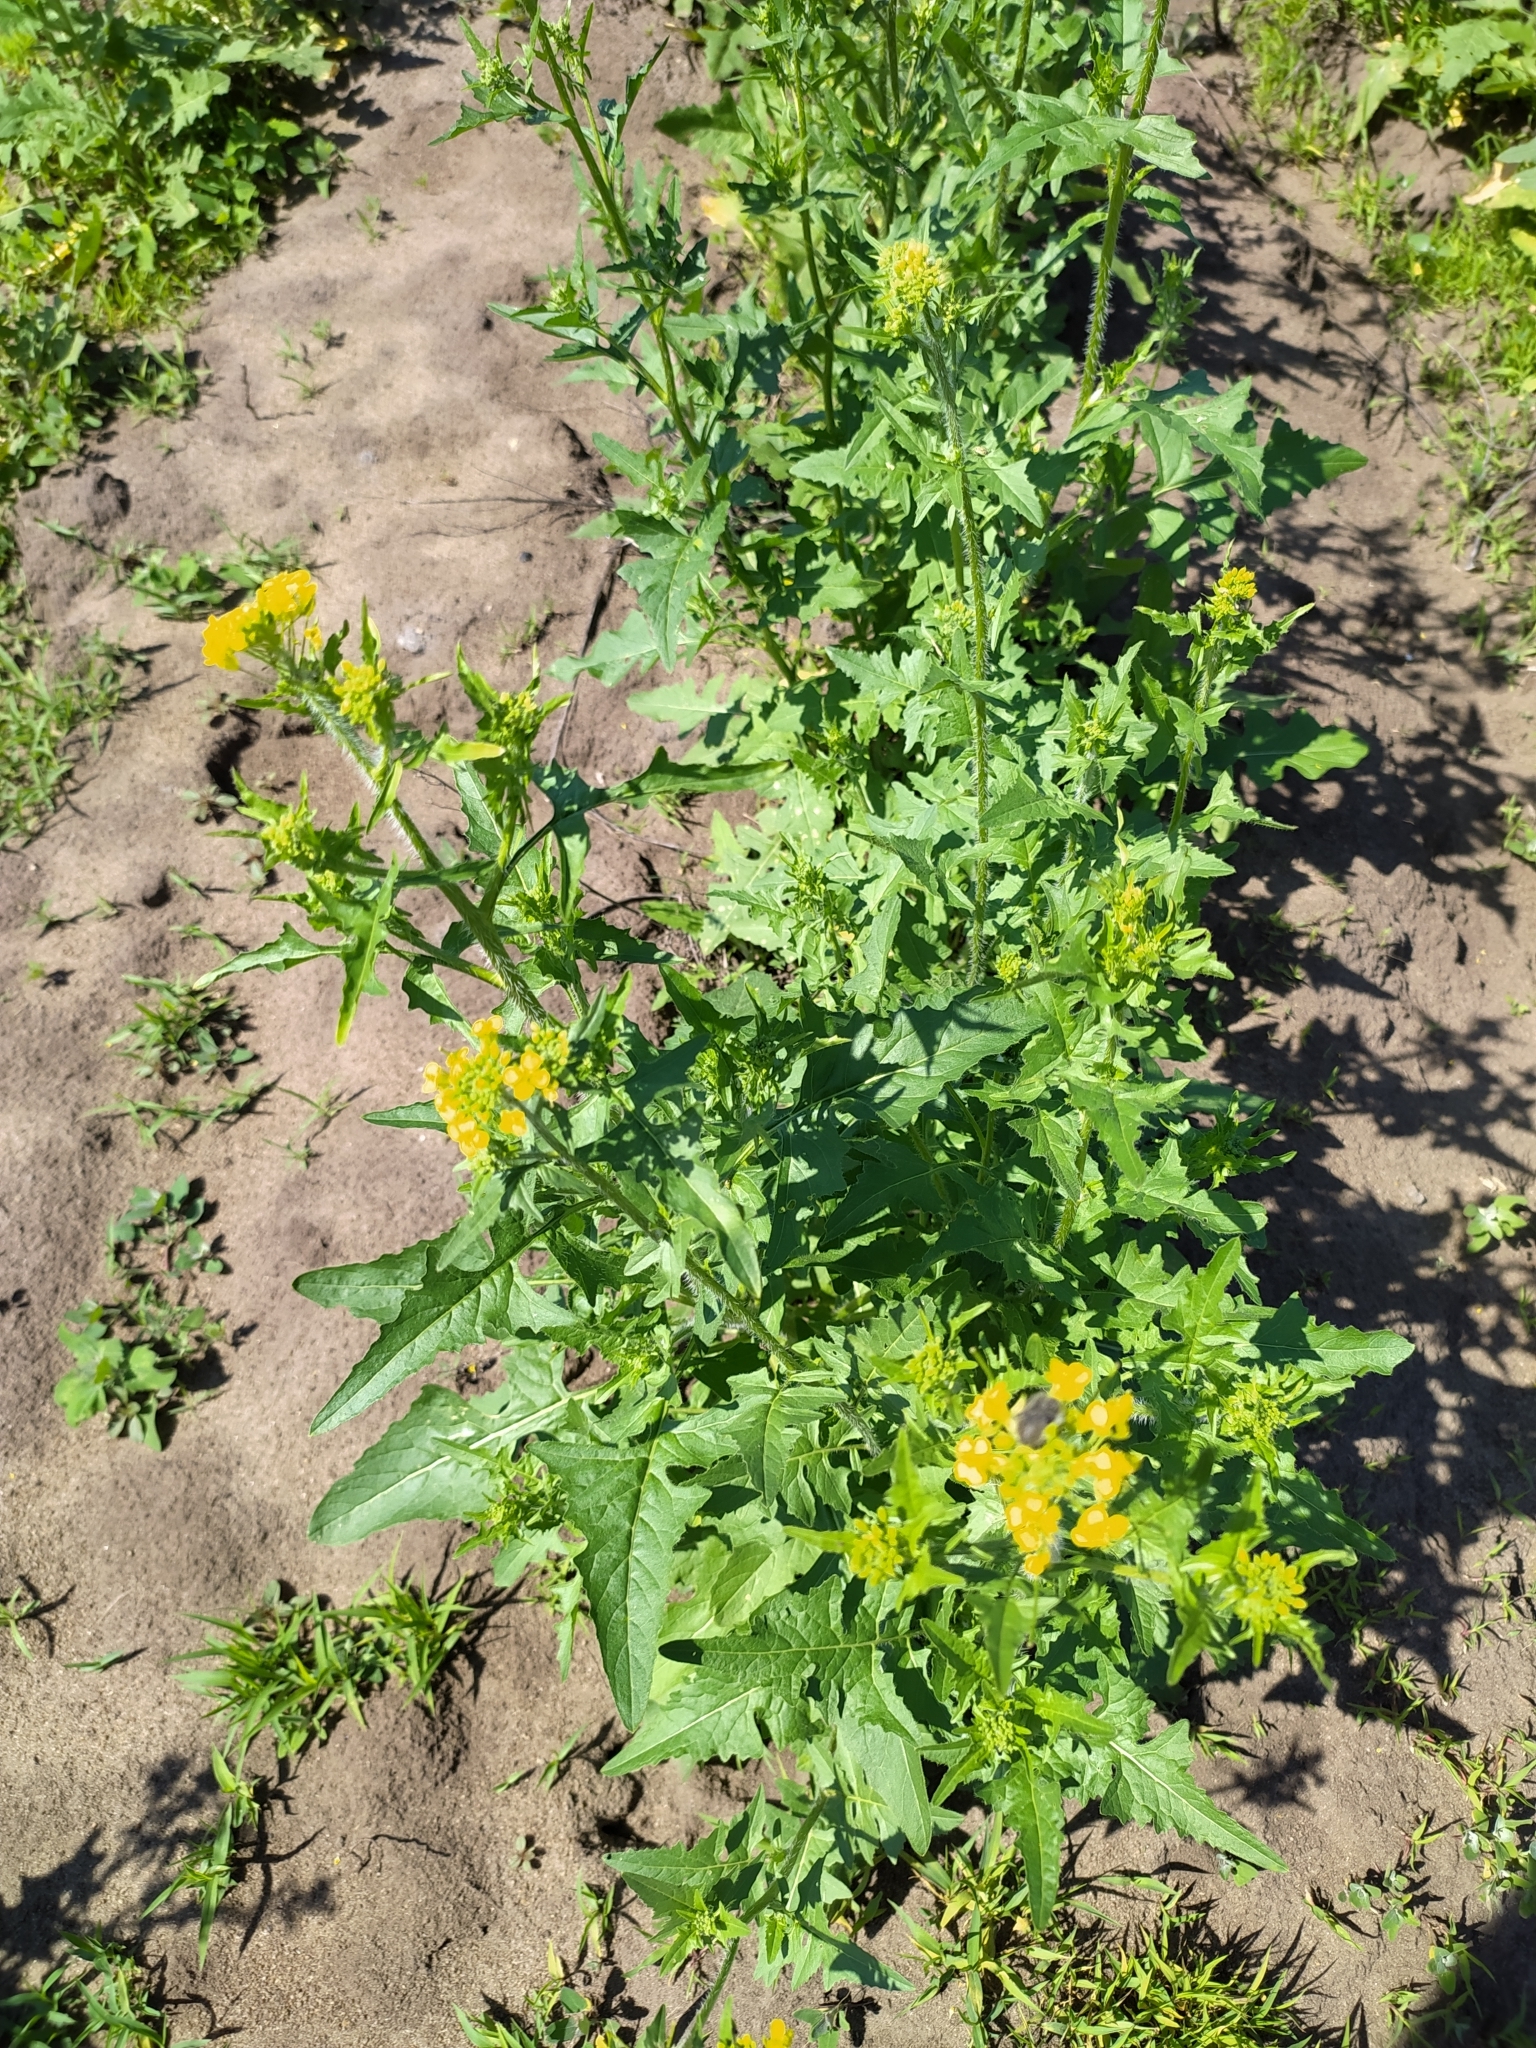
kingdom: Plantae
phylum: Tracheophyta
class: Magnoliopsida
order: Brassicales
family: Brassicaceae
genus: Sisymbrium
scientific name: Sisymbrium loeselii
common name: False london-rocket
